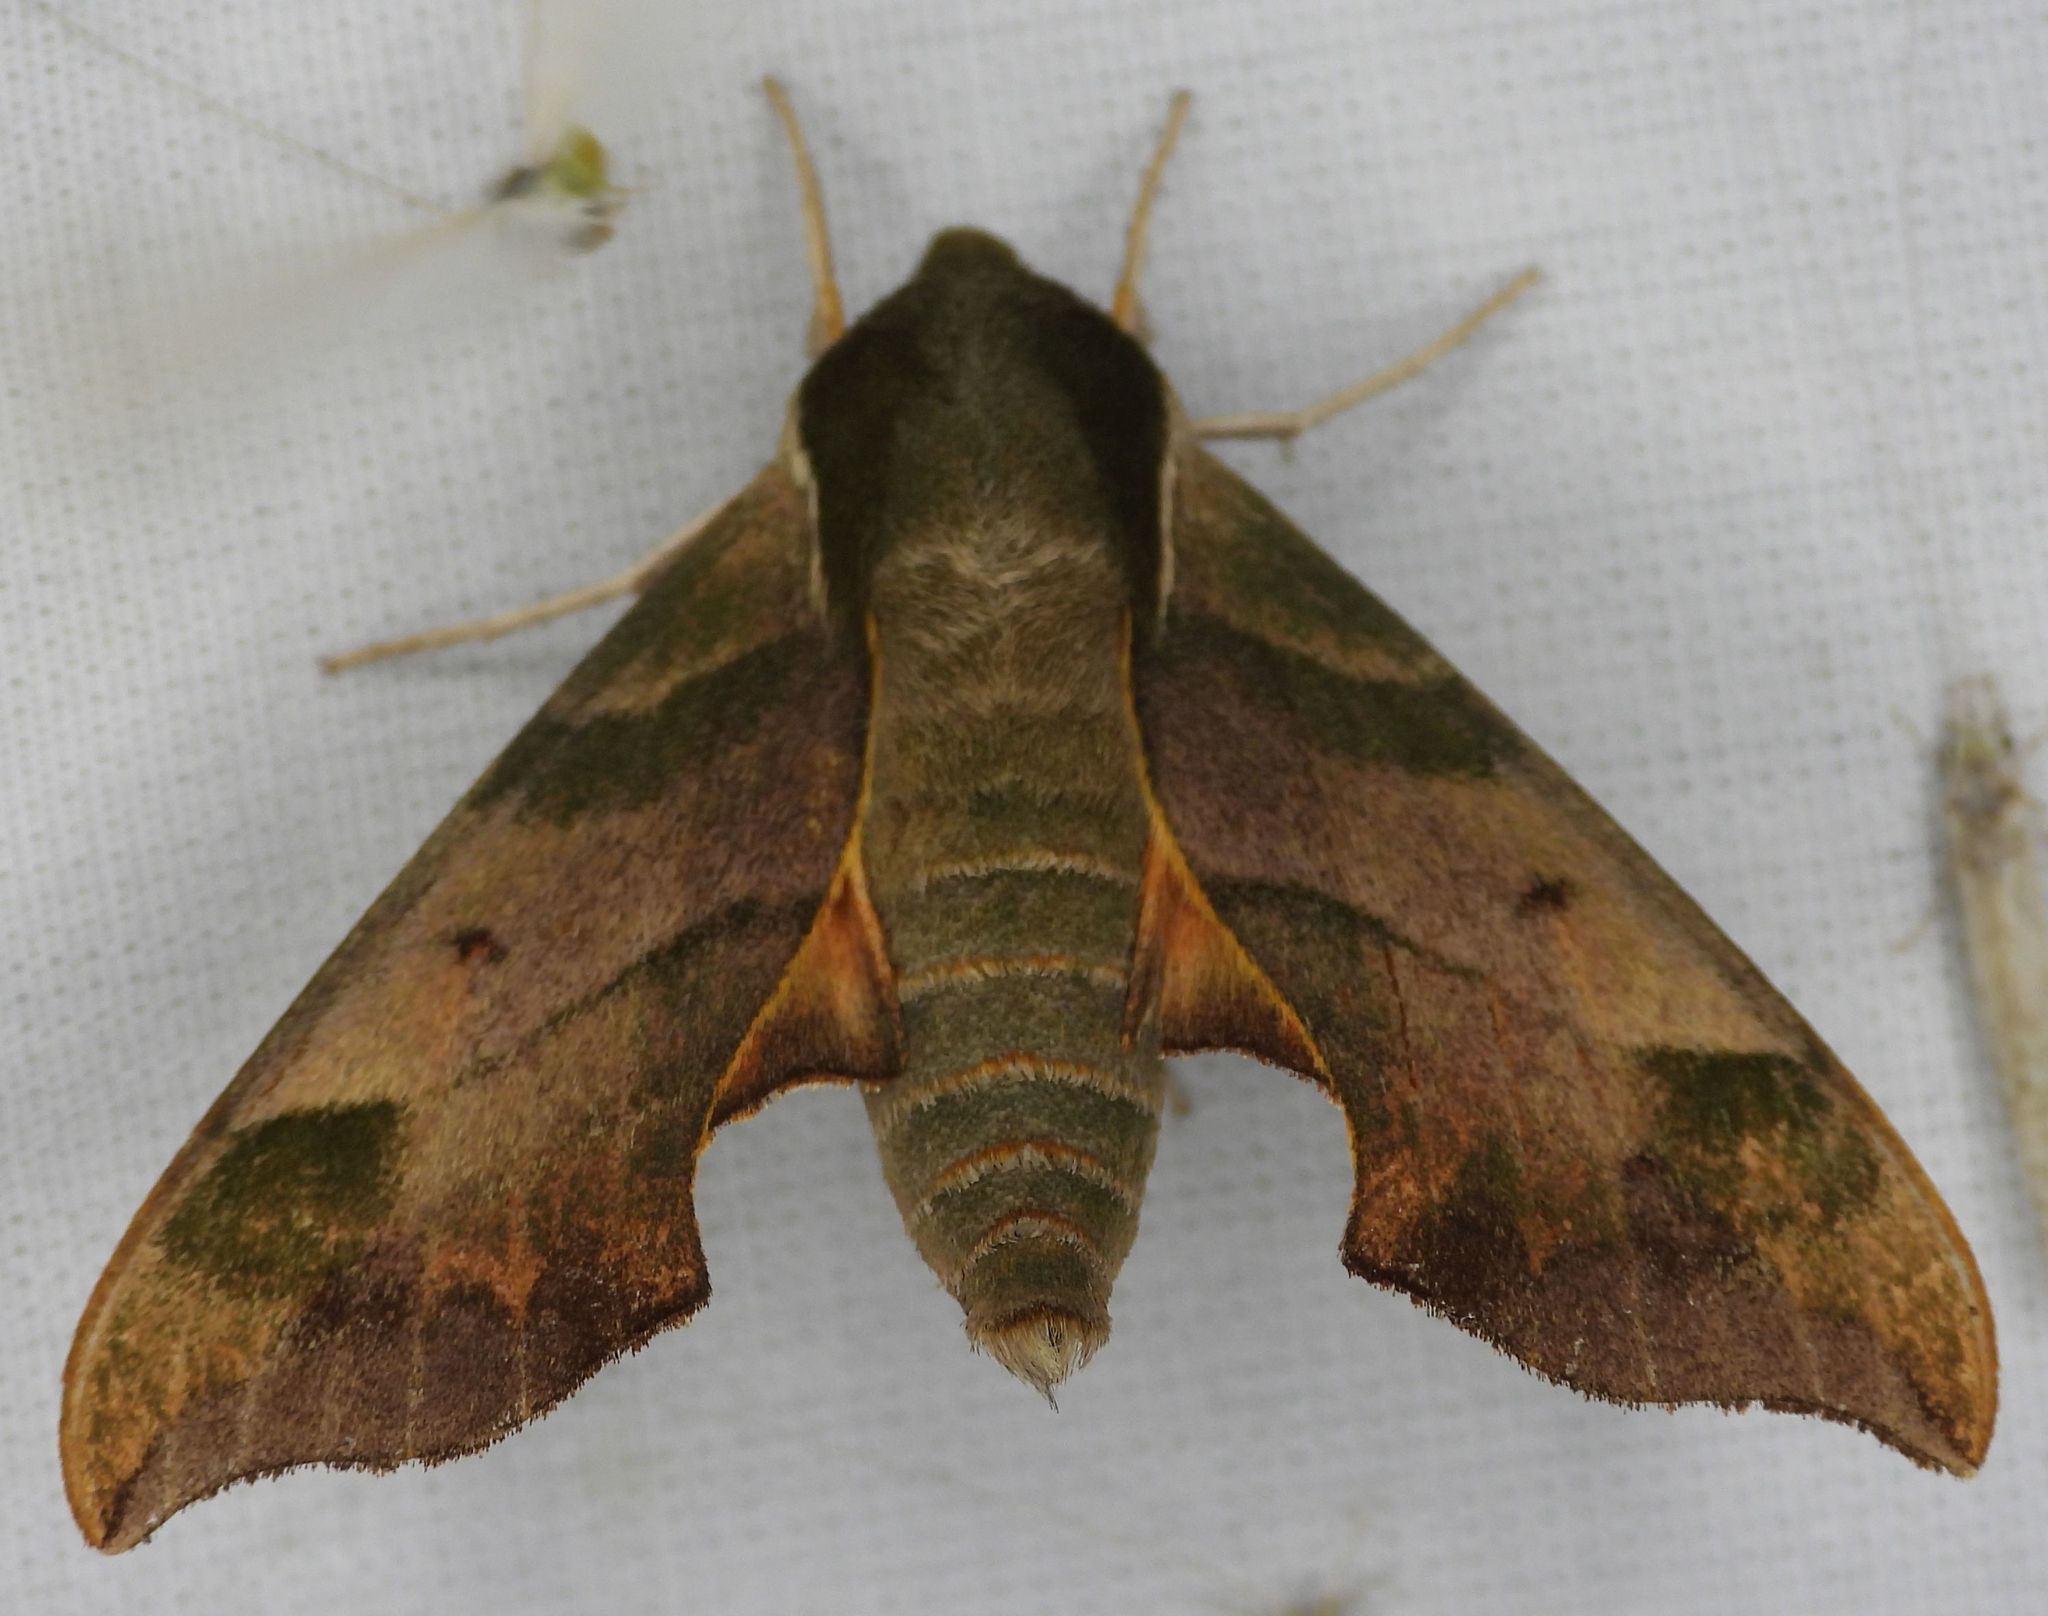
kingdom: Animalia
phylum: Arthropoda
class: Insecta
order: Lepidoptera
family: Sphingidae
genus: Darapsa
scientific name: Darapsa myron
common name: Hog sphinx
